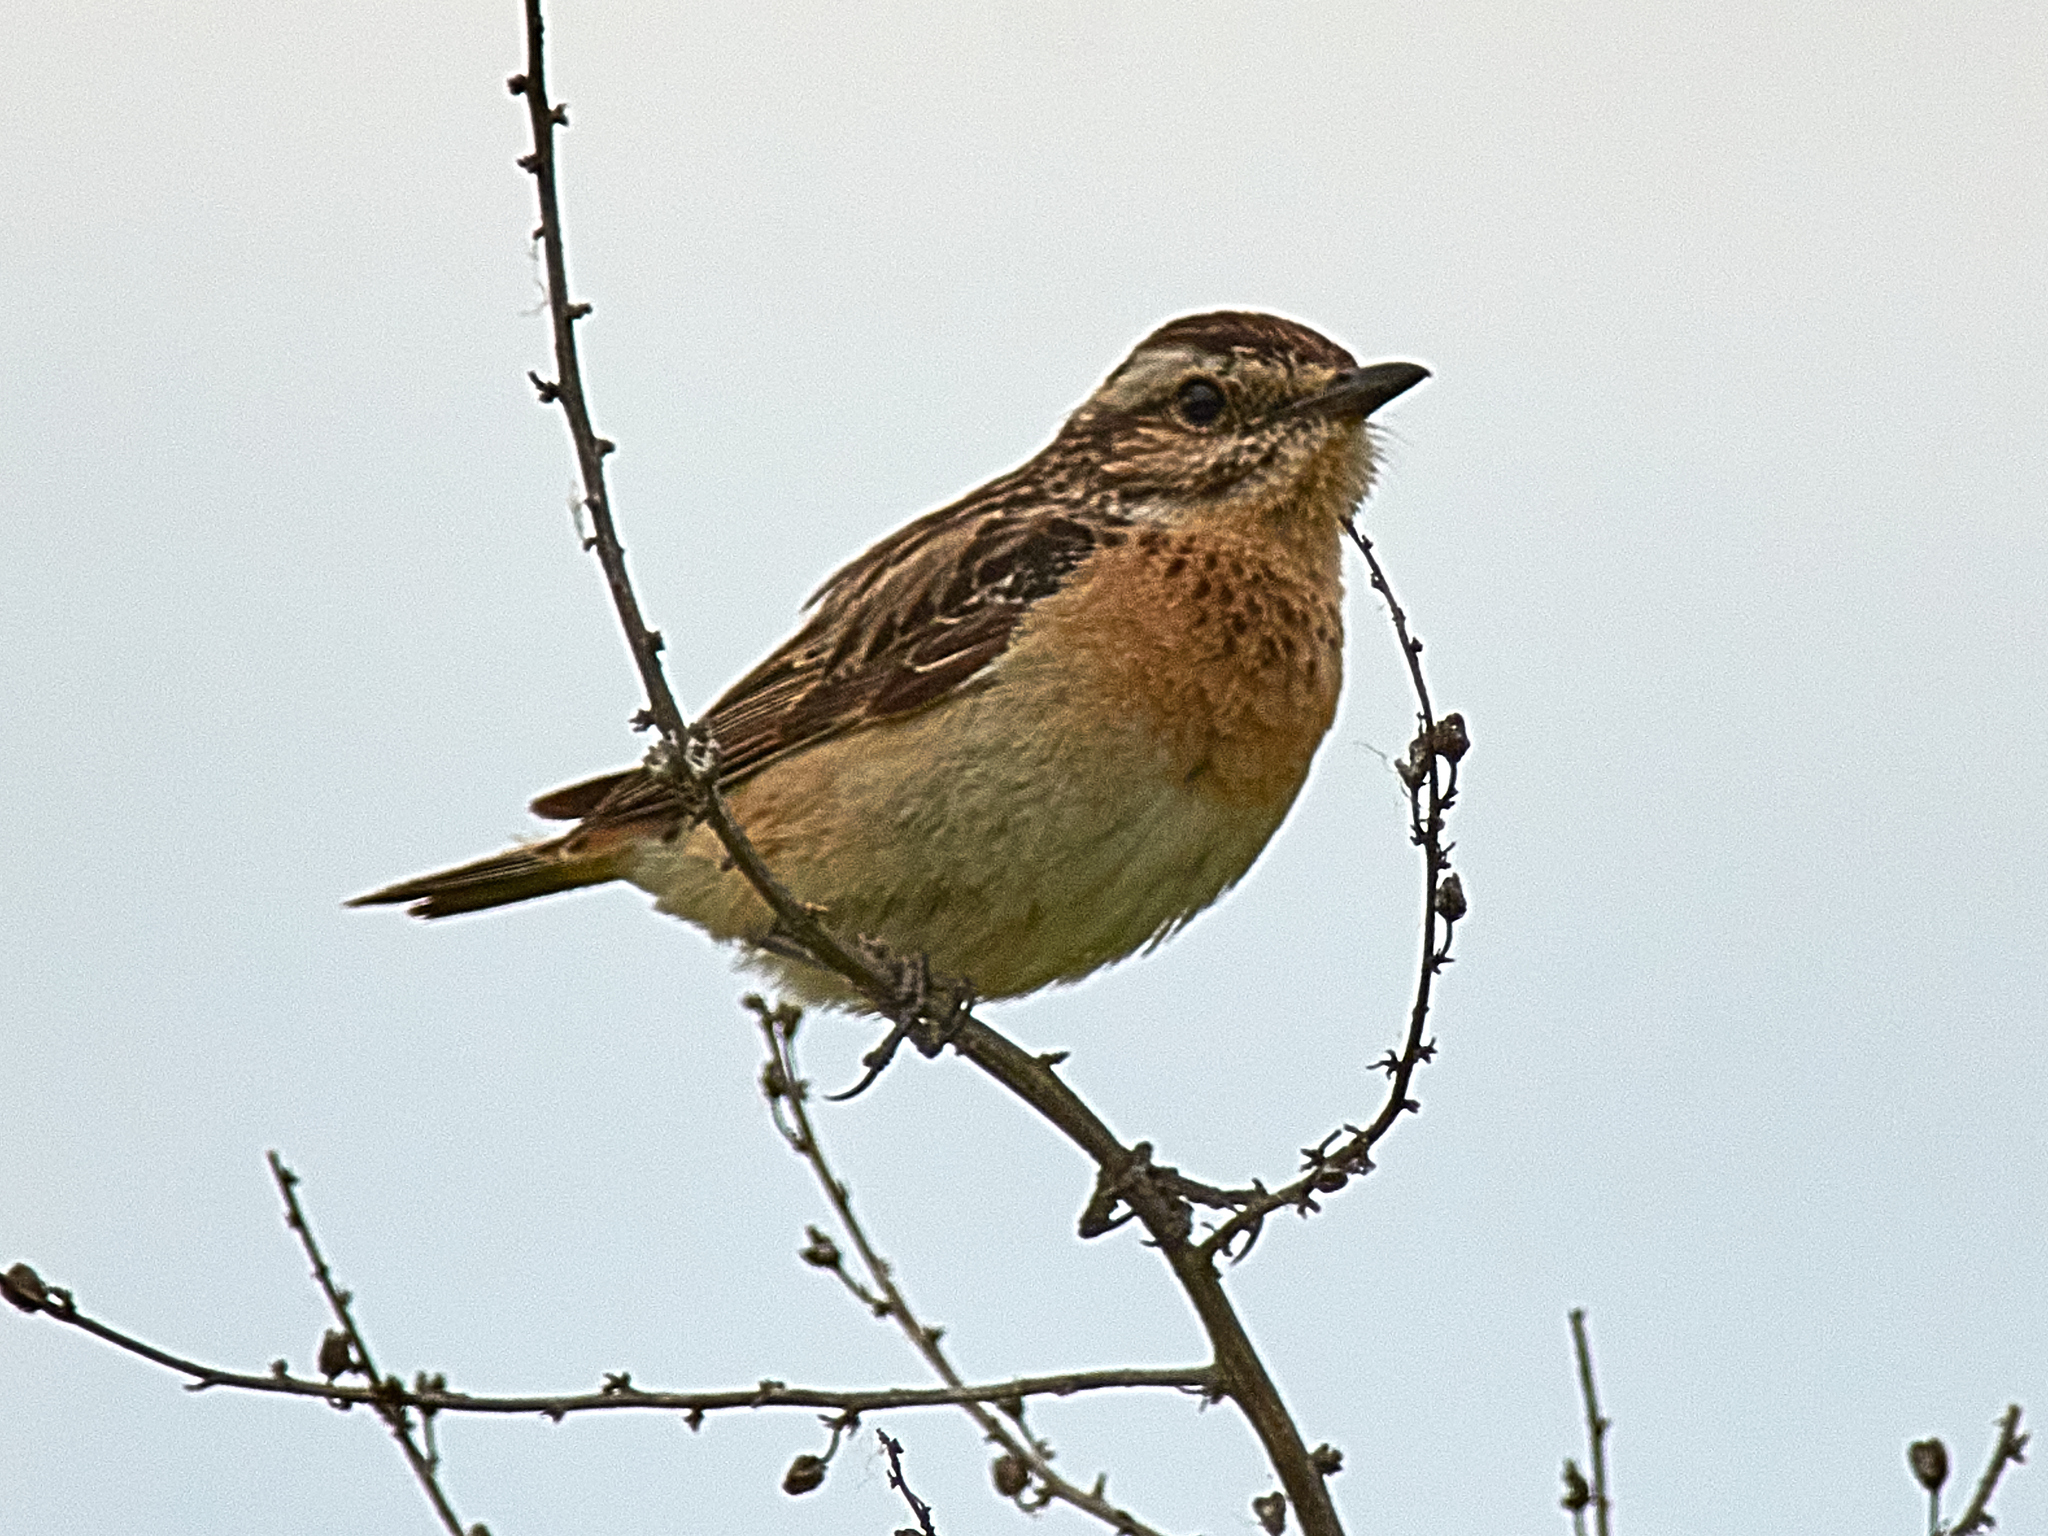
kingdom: Animalia
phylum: Chordata
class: Aves
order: Passeriformes
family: Muscicapidae
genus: Saxicola
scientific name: Saxicola rubetra
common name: Whinchat
